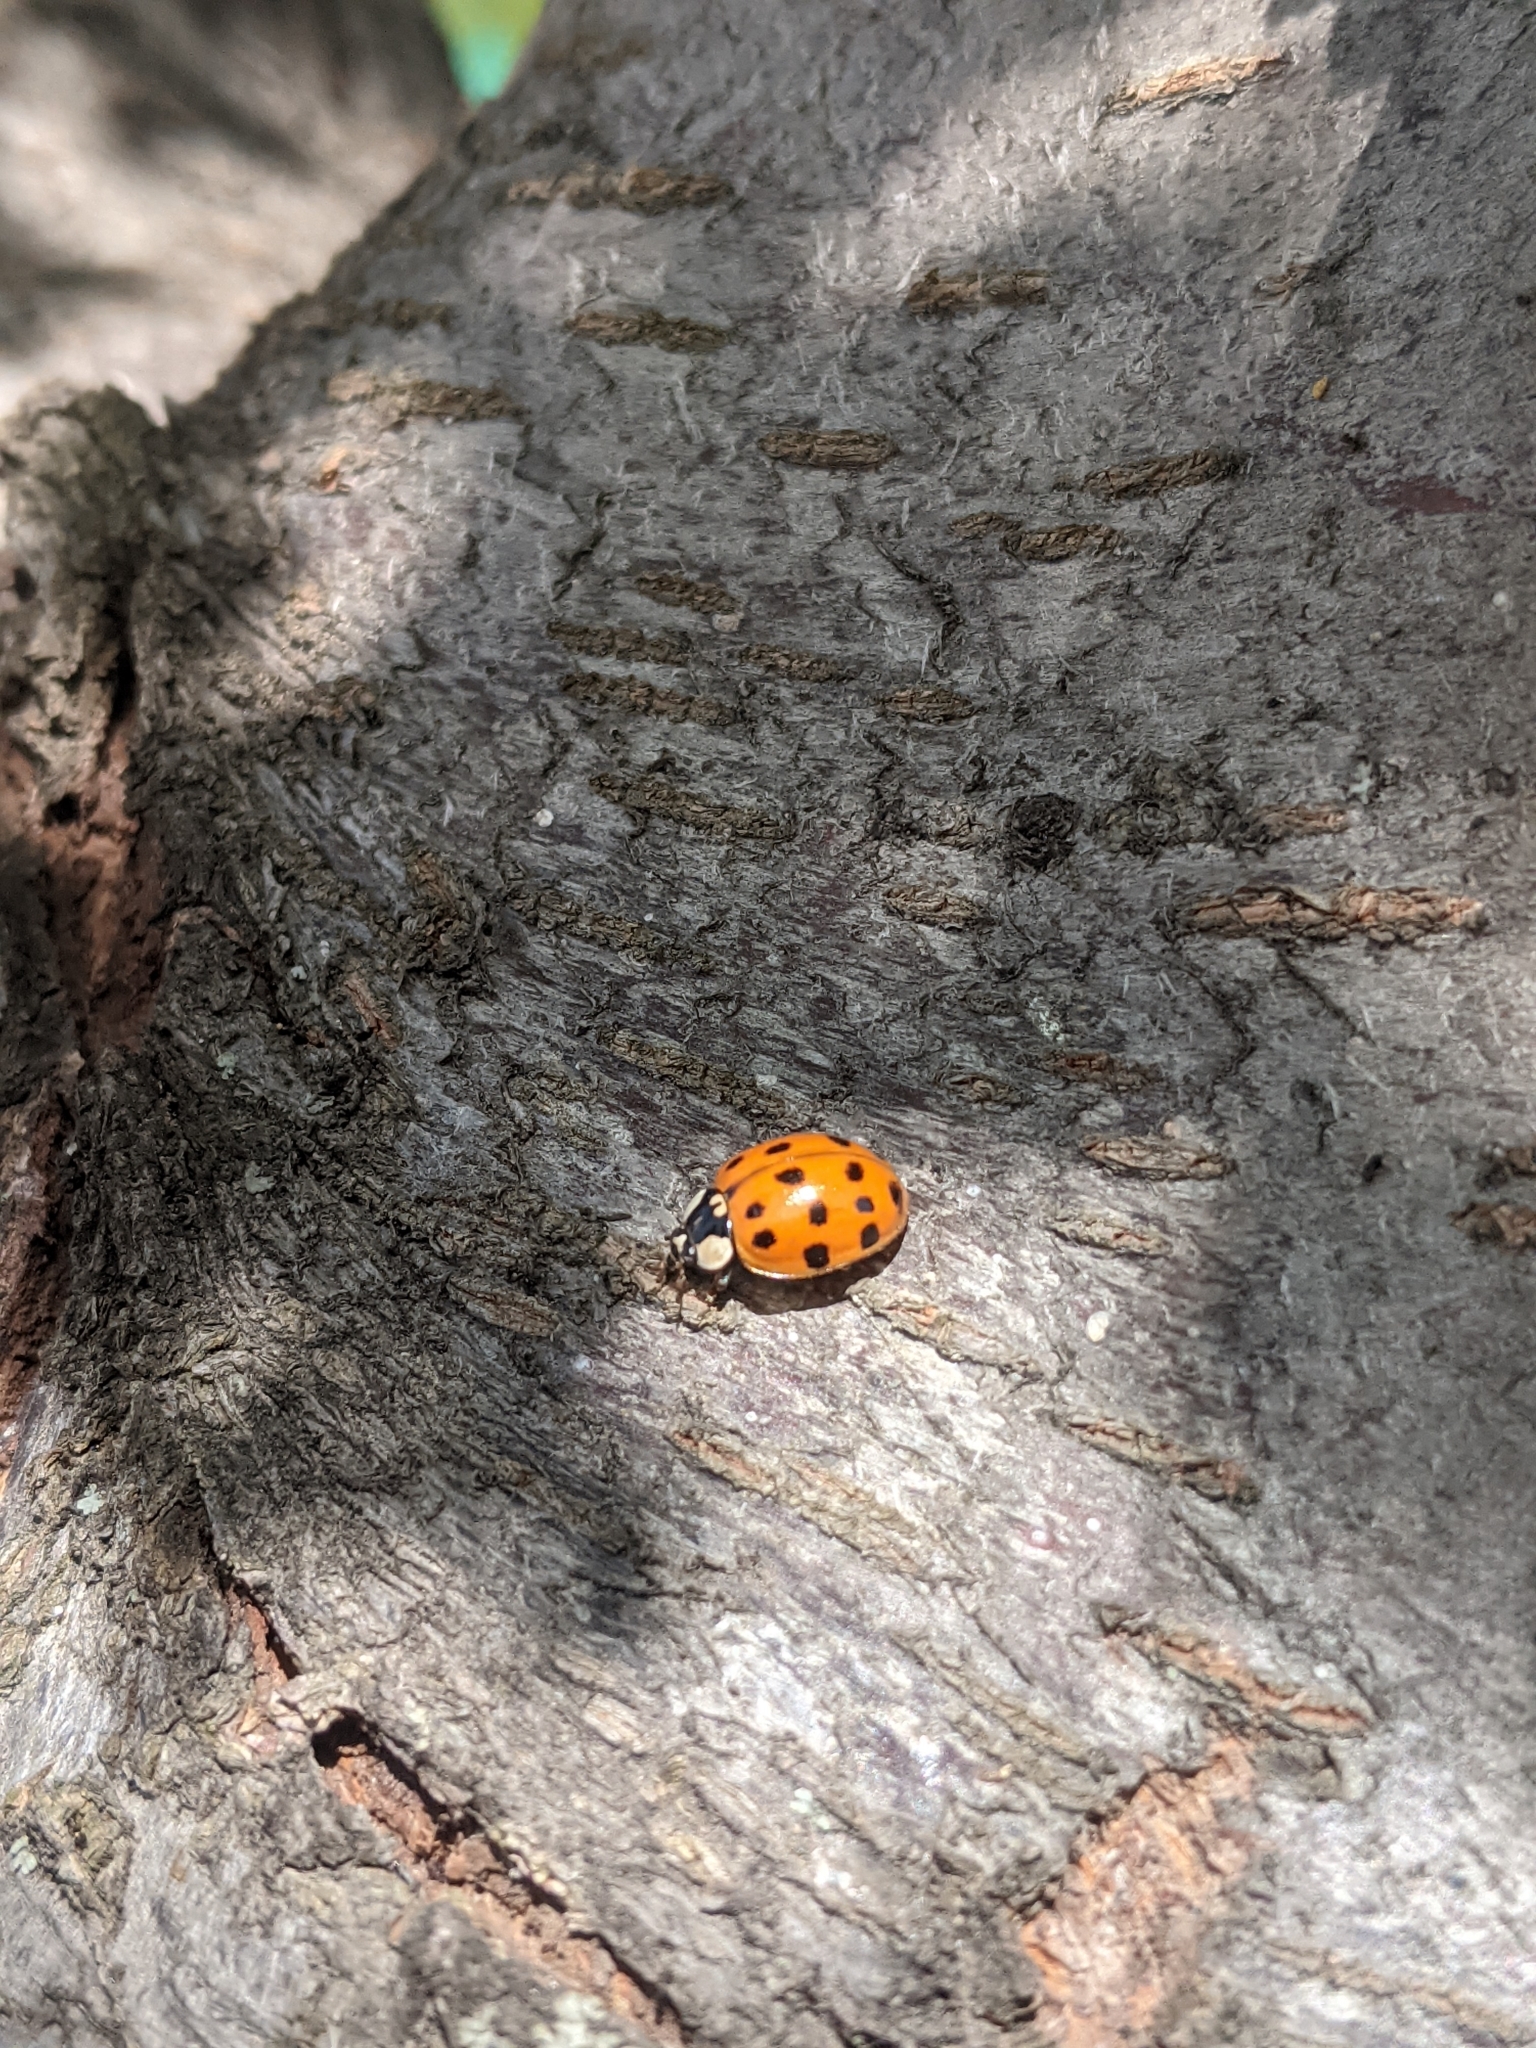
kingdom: Animalia
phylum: Arthropoda
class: Insecta
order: Coleoptera
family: Coccinellidae
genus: Harmonia
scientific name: Harmonia axyridis
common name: Harlequin ladybird
